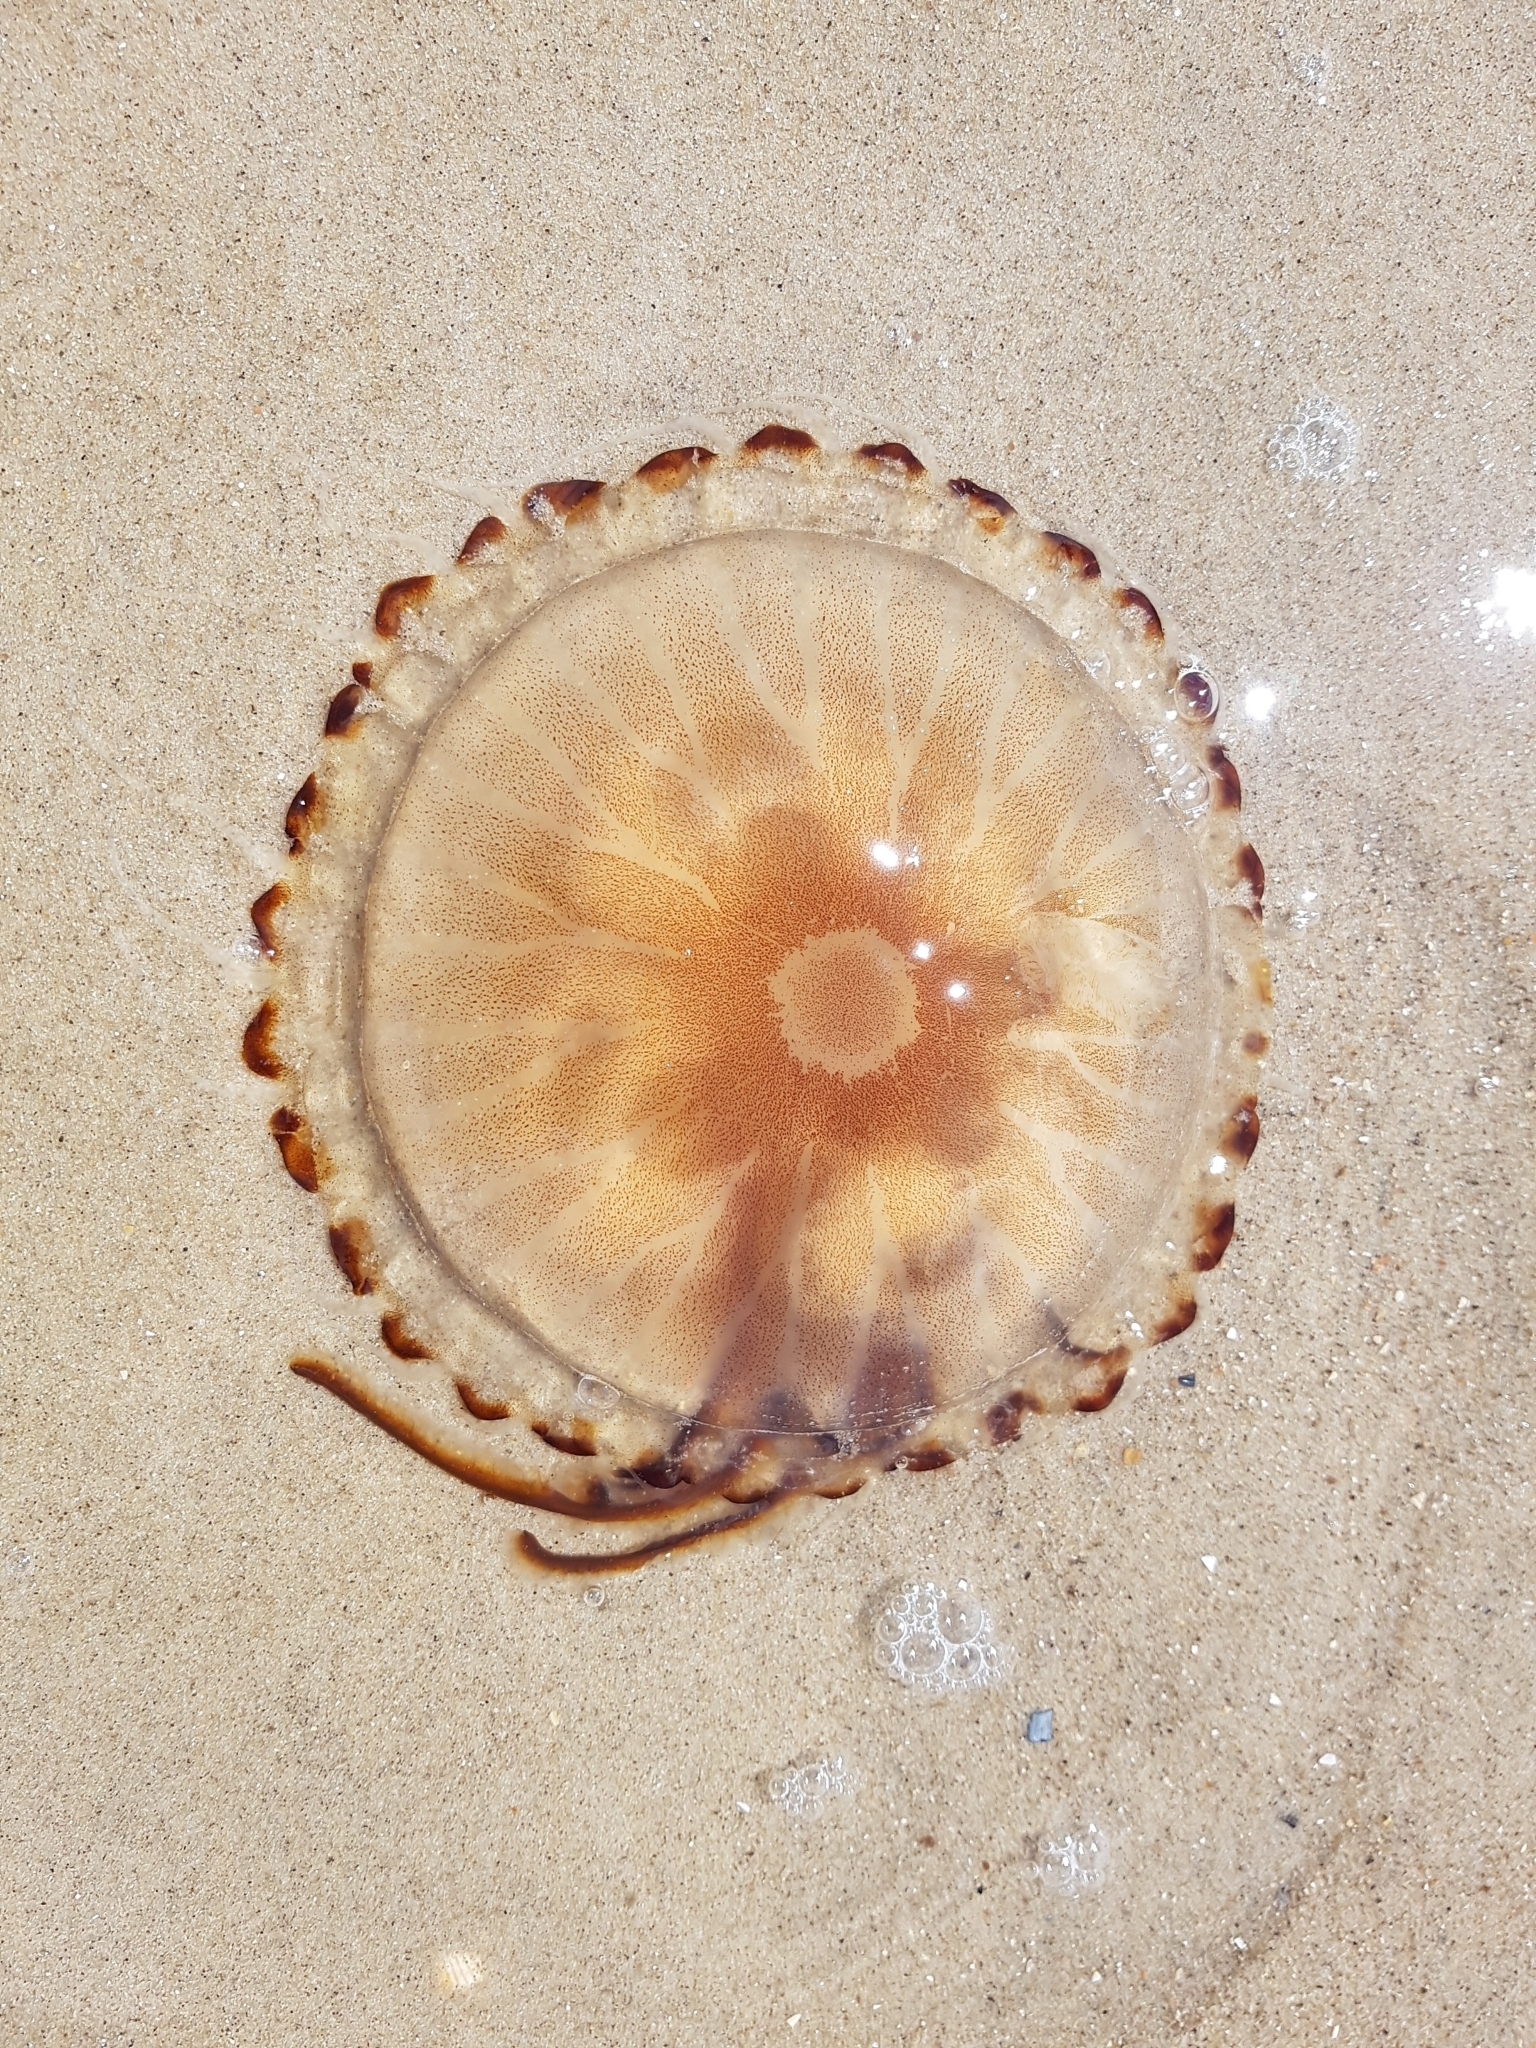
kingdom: Animalia
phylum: Cnidaria
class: Scyphozoa
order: Semaeostomeae
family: Pelagiidae
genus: Chrysaora
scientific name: Chrysaora hysoscella
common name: Compass jellyfish
